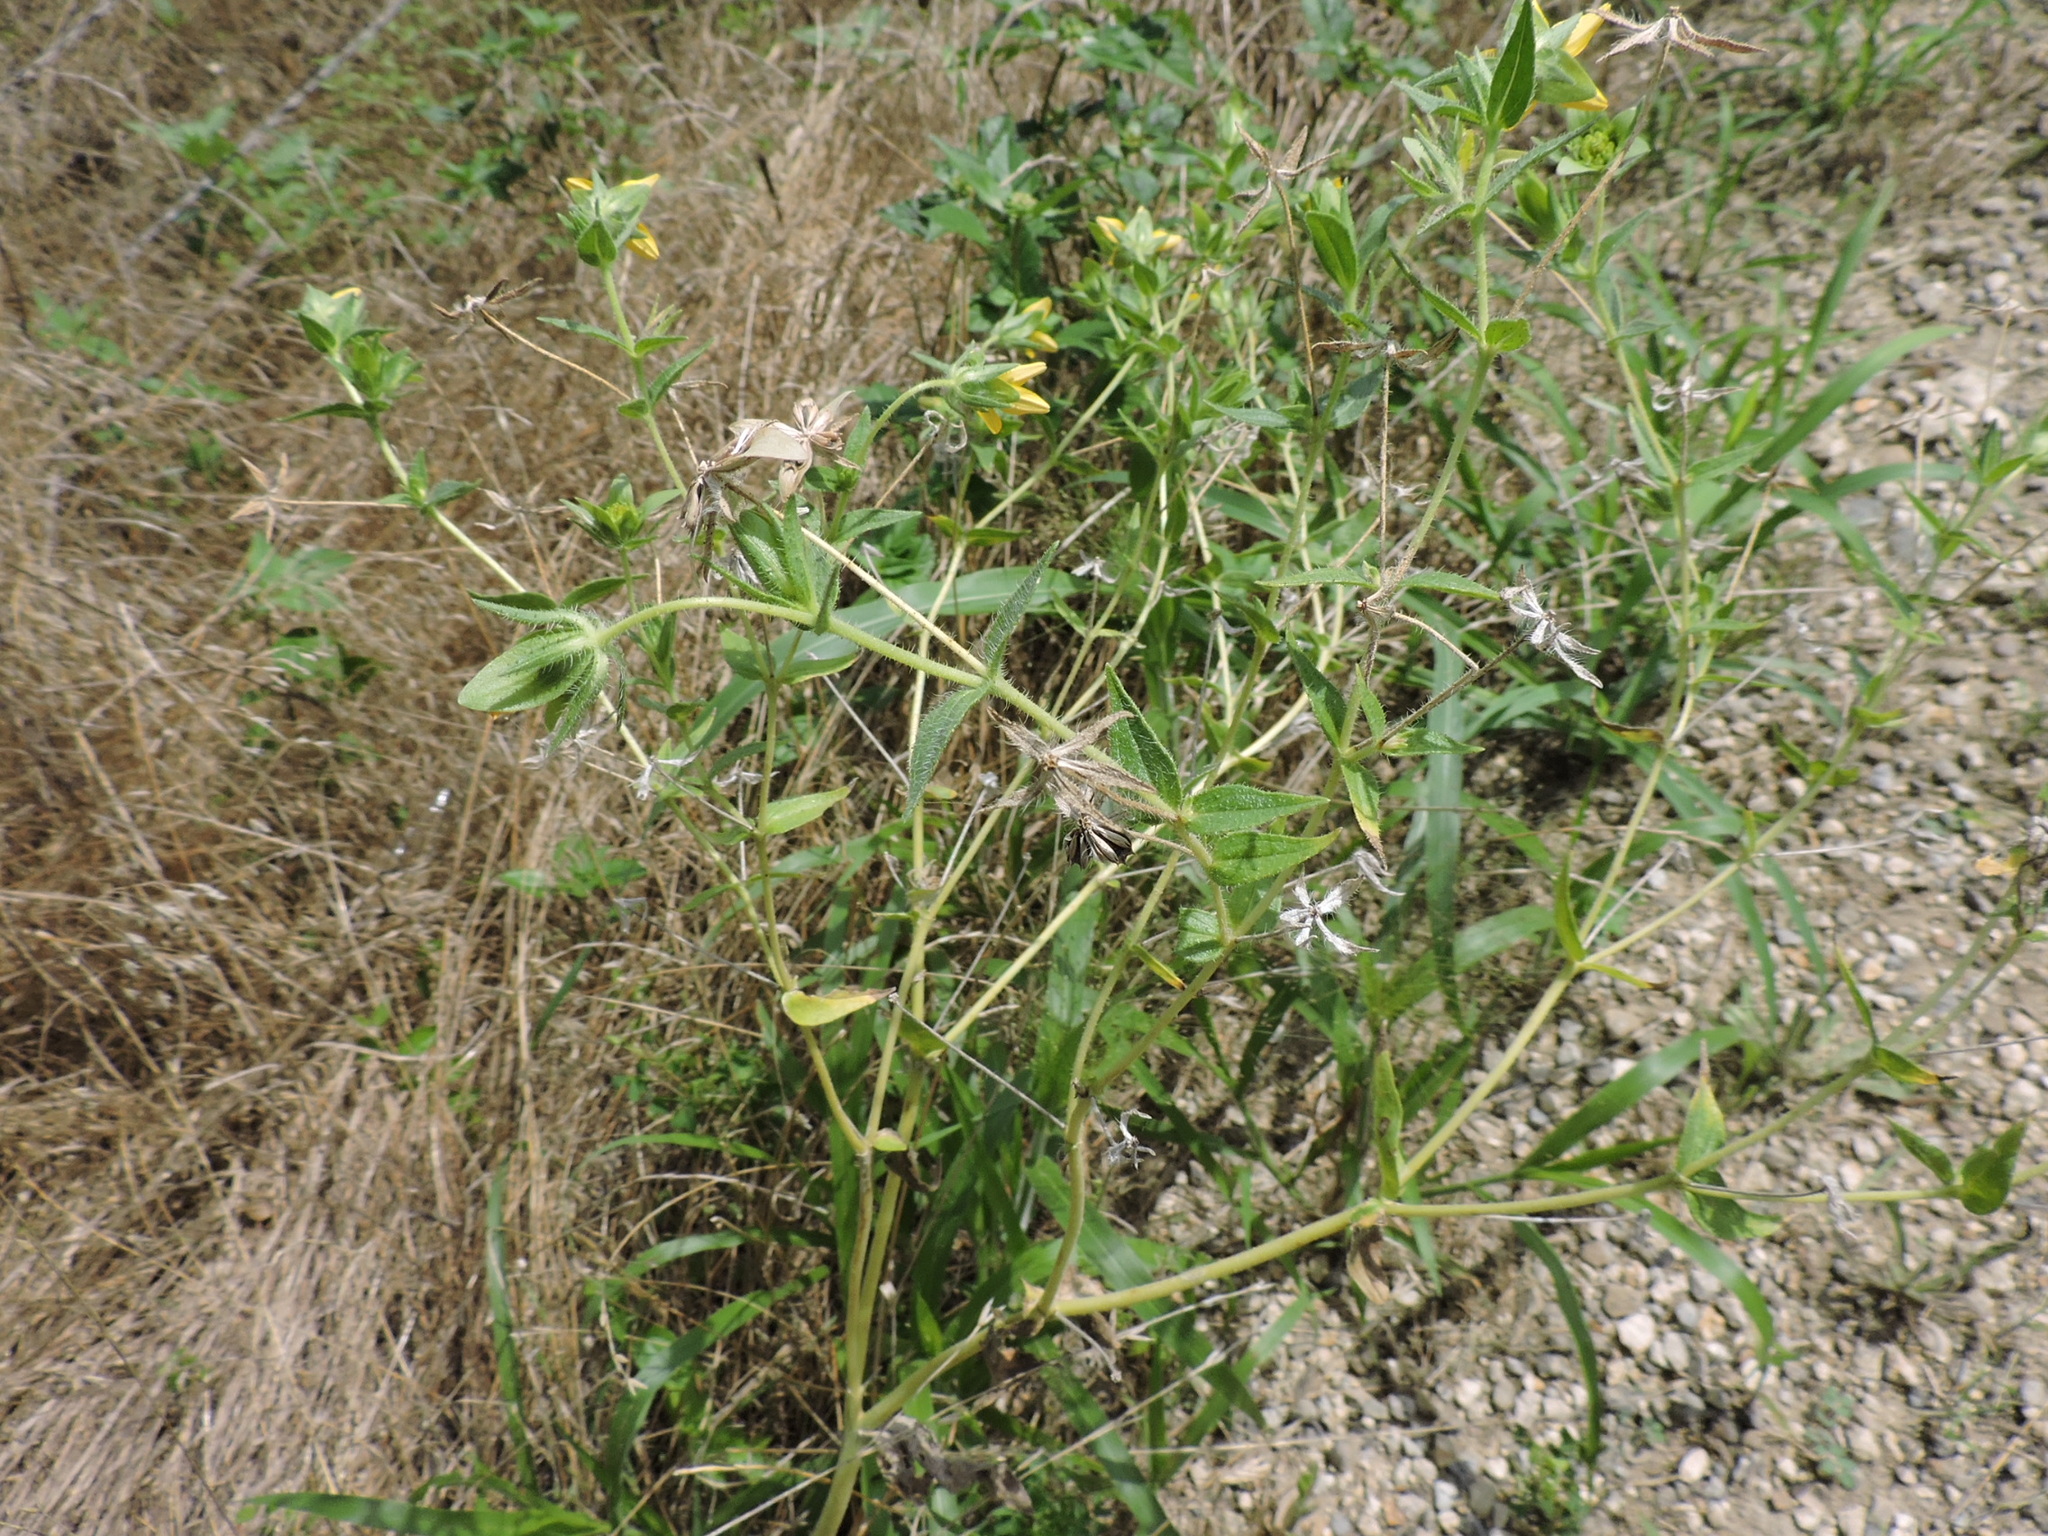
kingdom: Plantae
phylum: Tracheophyta
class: Magnoliopsida
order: Asterales
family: Asteraceae
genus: Lindheimera
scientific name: Lindheimera texana
